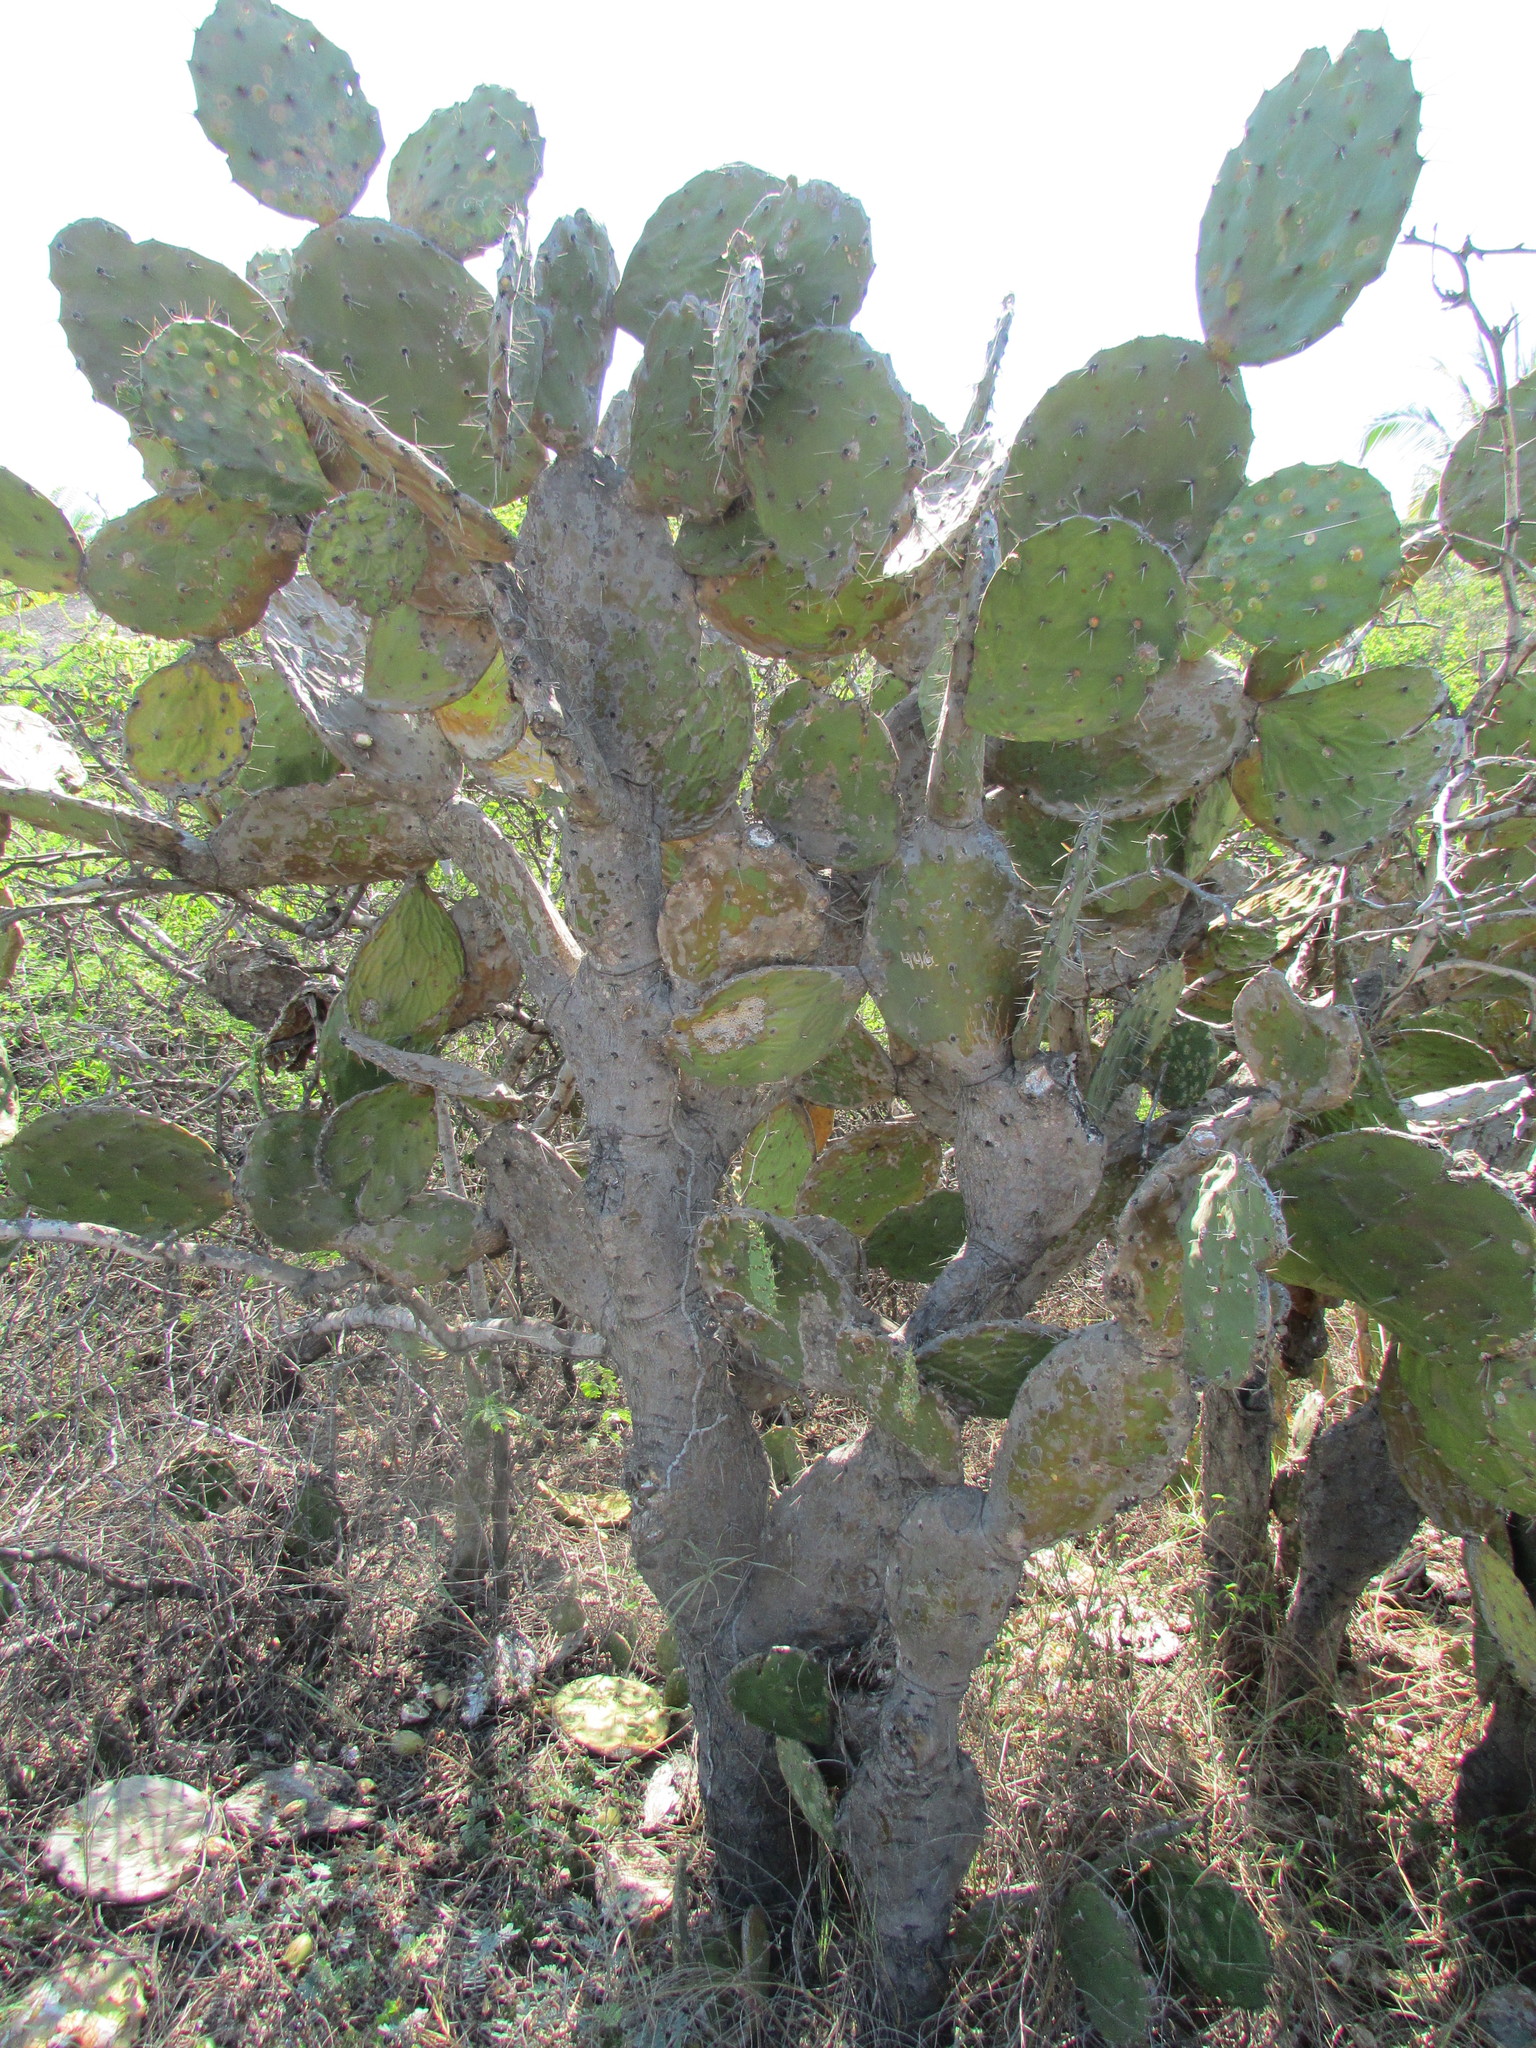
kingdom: Plantae
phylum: Tracheophyta
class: Magnoliopsida
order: Caryophyllales
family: Cactaceae
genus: Opuntia
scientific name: Opuntia stricta
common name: Erect pricklypear
